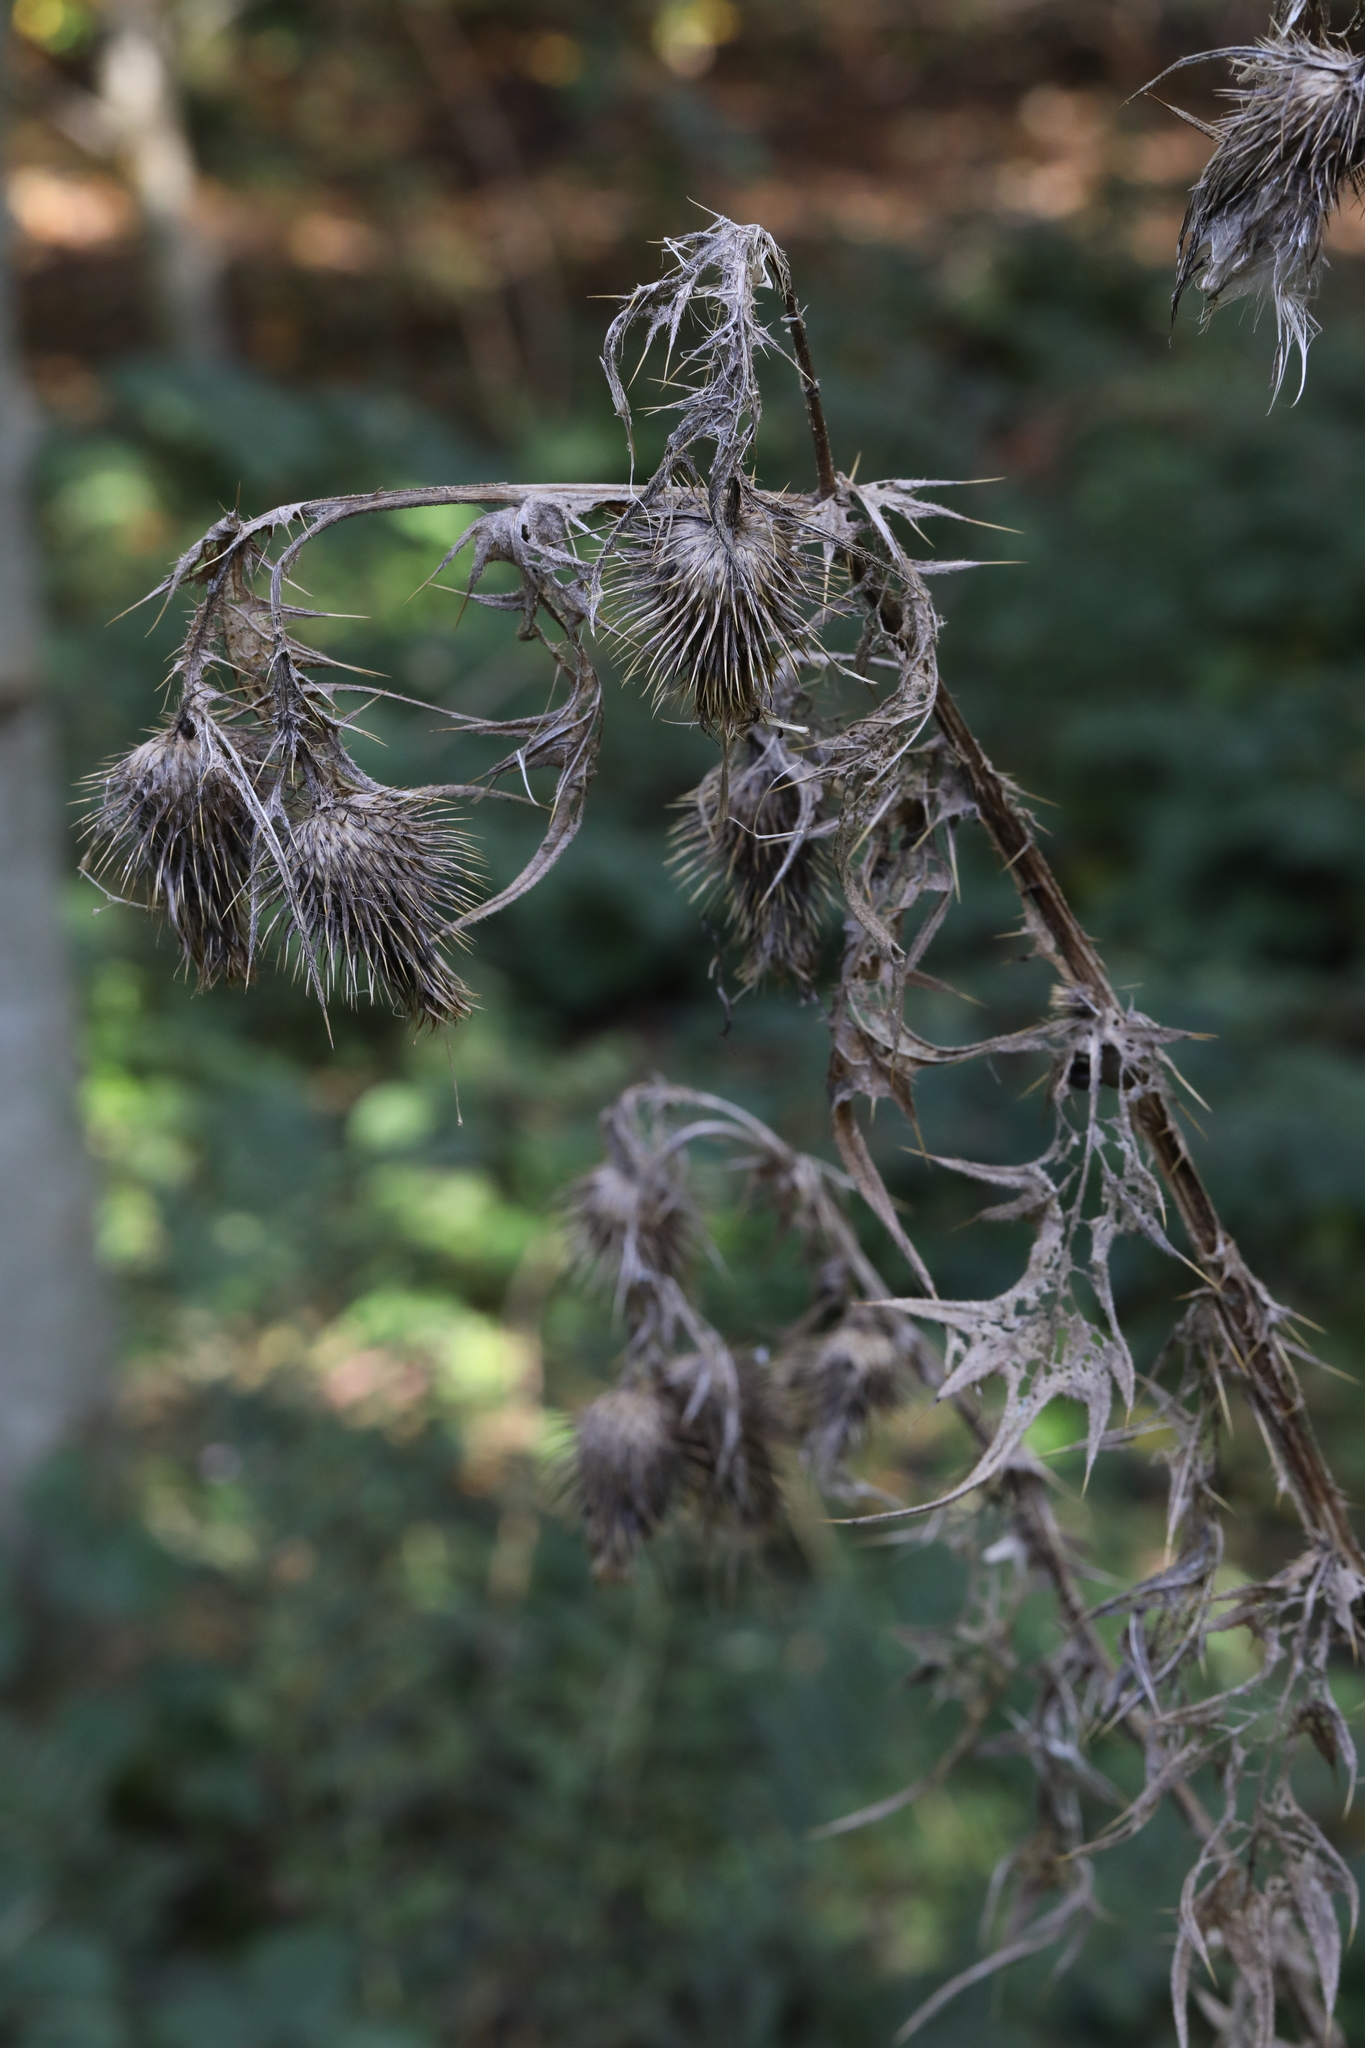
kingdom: Plantae
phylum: Tracheophyta
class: Magnoliopsida
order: Asterales
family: Asteraceae
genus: Cirsium
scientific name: Cirsium vulgare
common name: Bull thistle
